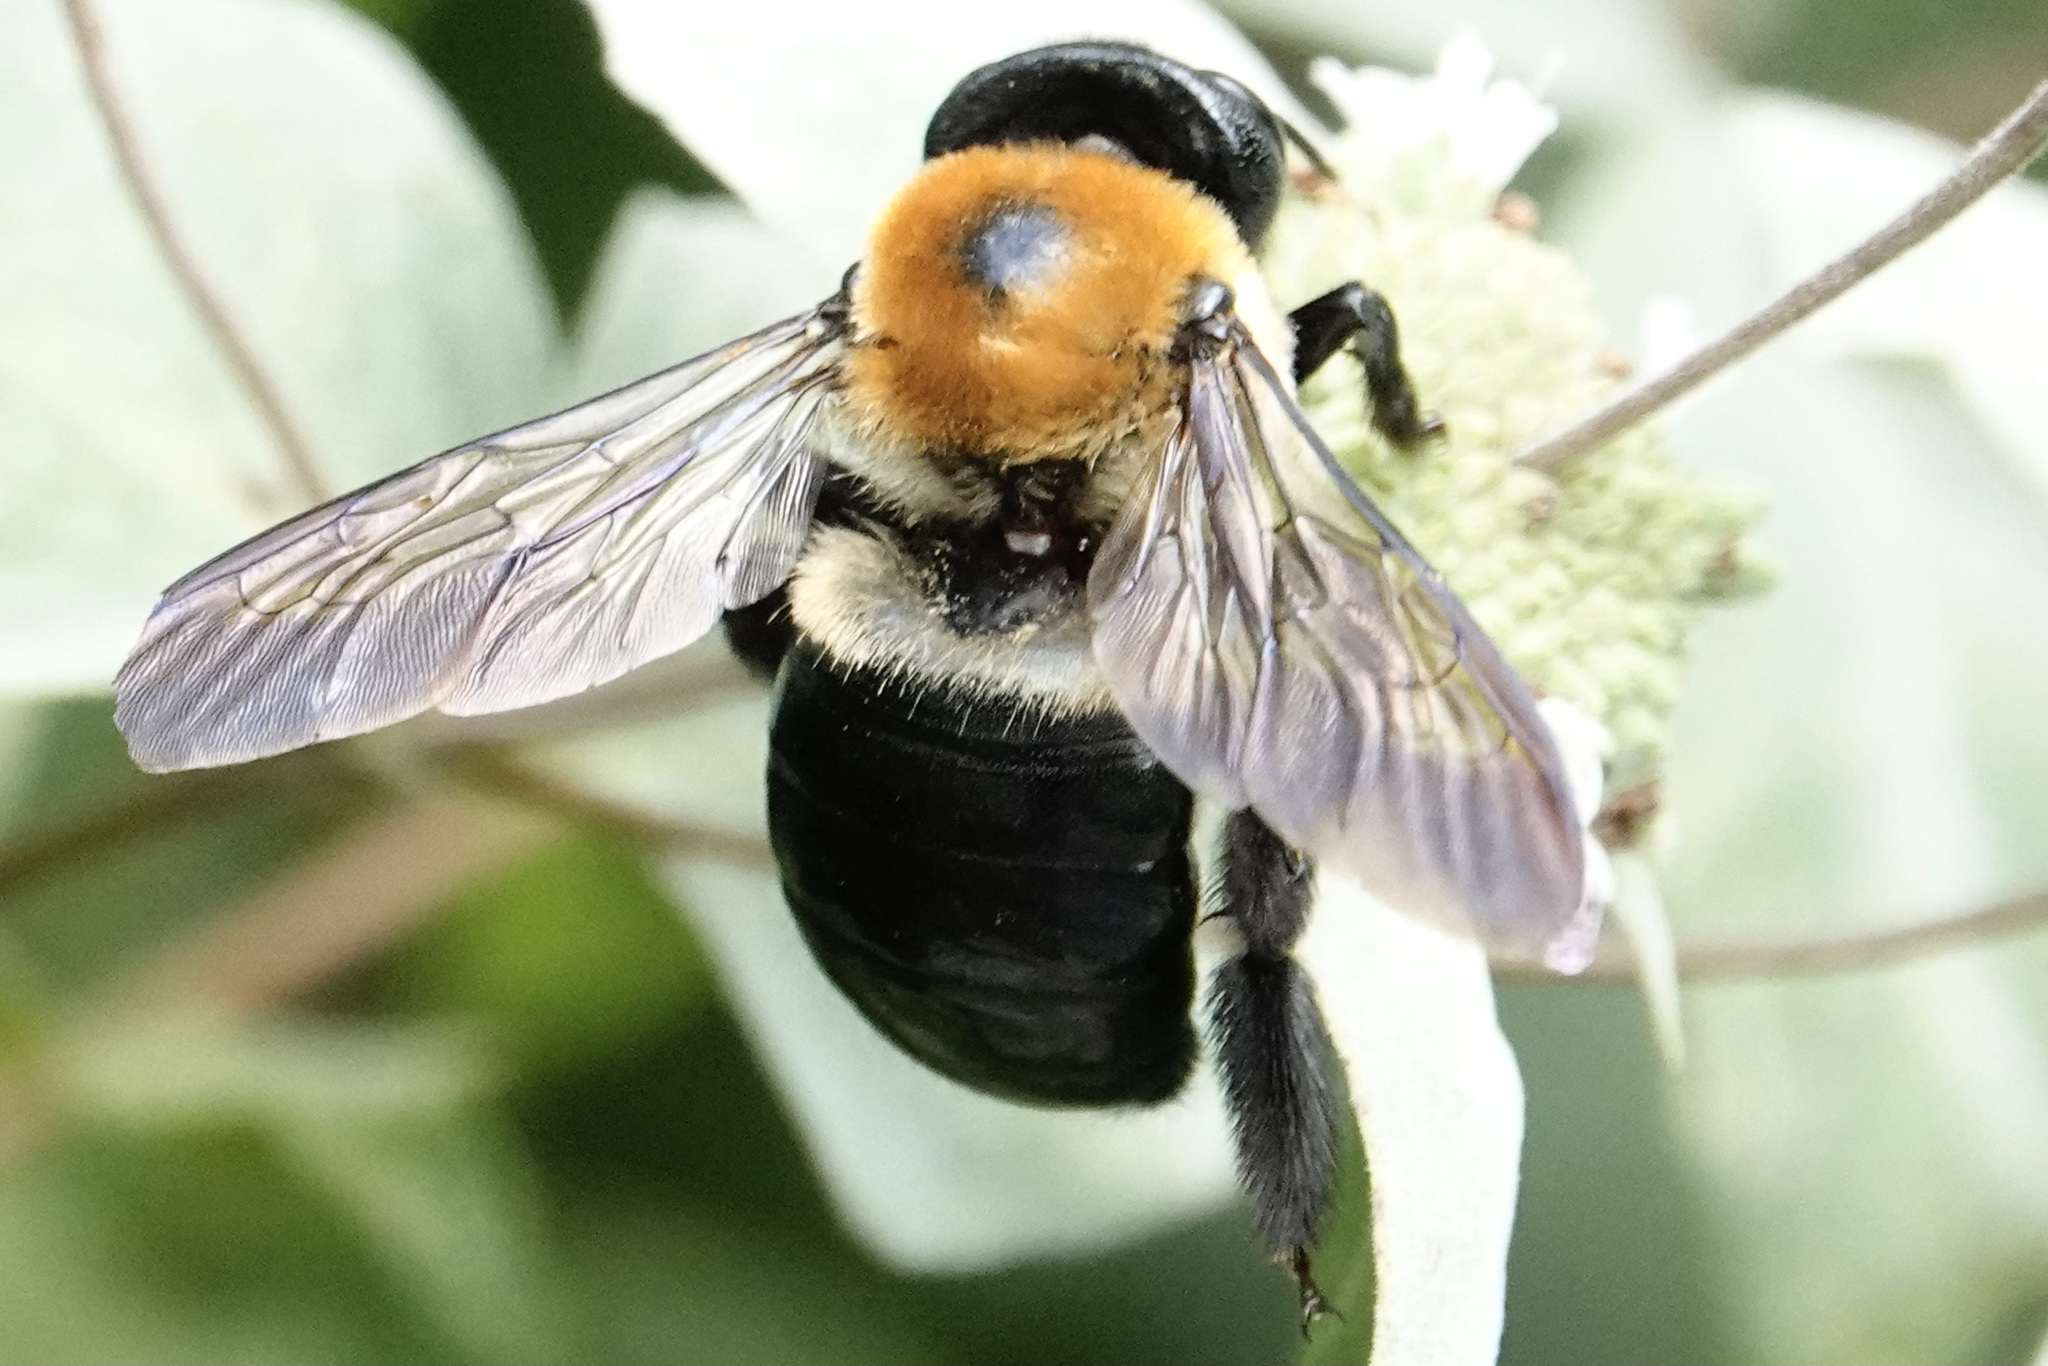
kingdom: Animalia
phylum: Arthropoda
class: Insecta
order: Hymenoptera
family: Apidae
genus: Xylocopa
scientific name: Xylocopa virginica
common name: Carpenter bee
